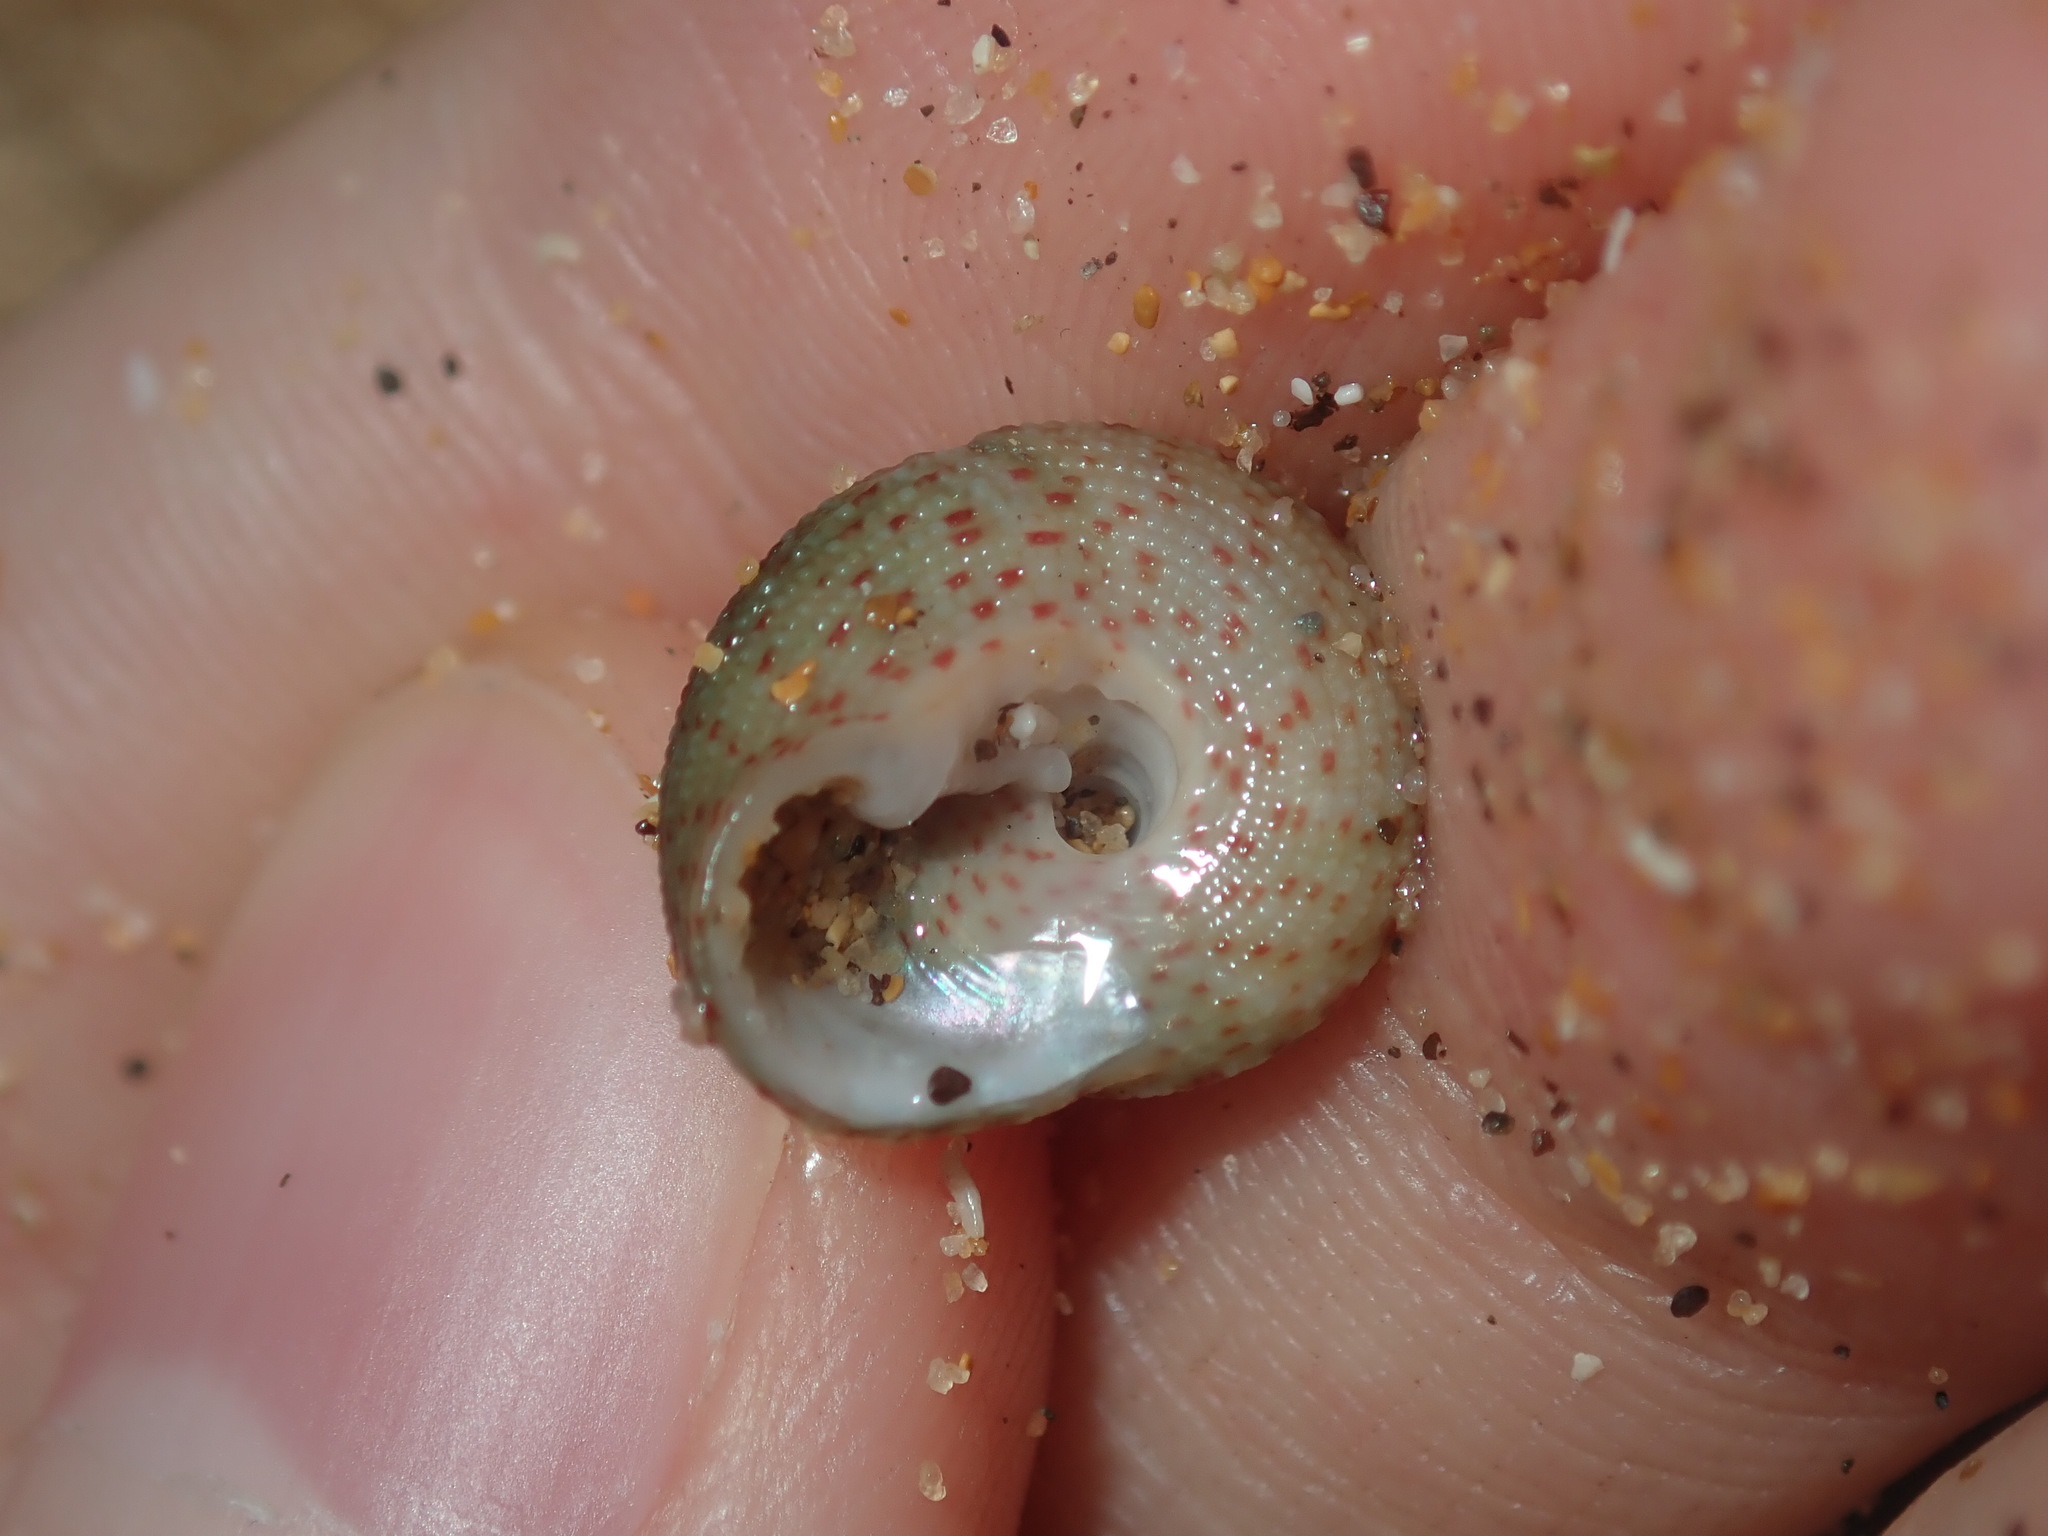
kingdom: Animalia
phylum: Mollusca
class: Gastropoda
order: Trochida
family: Trochidae
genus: Clanculus
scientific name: Clanculus clangulus
